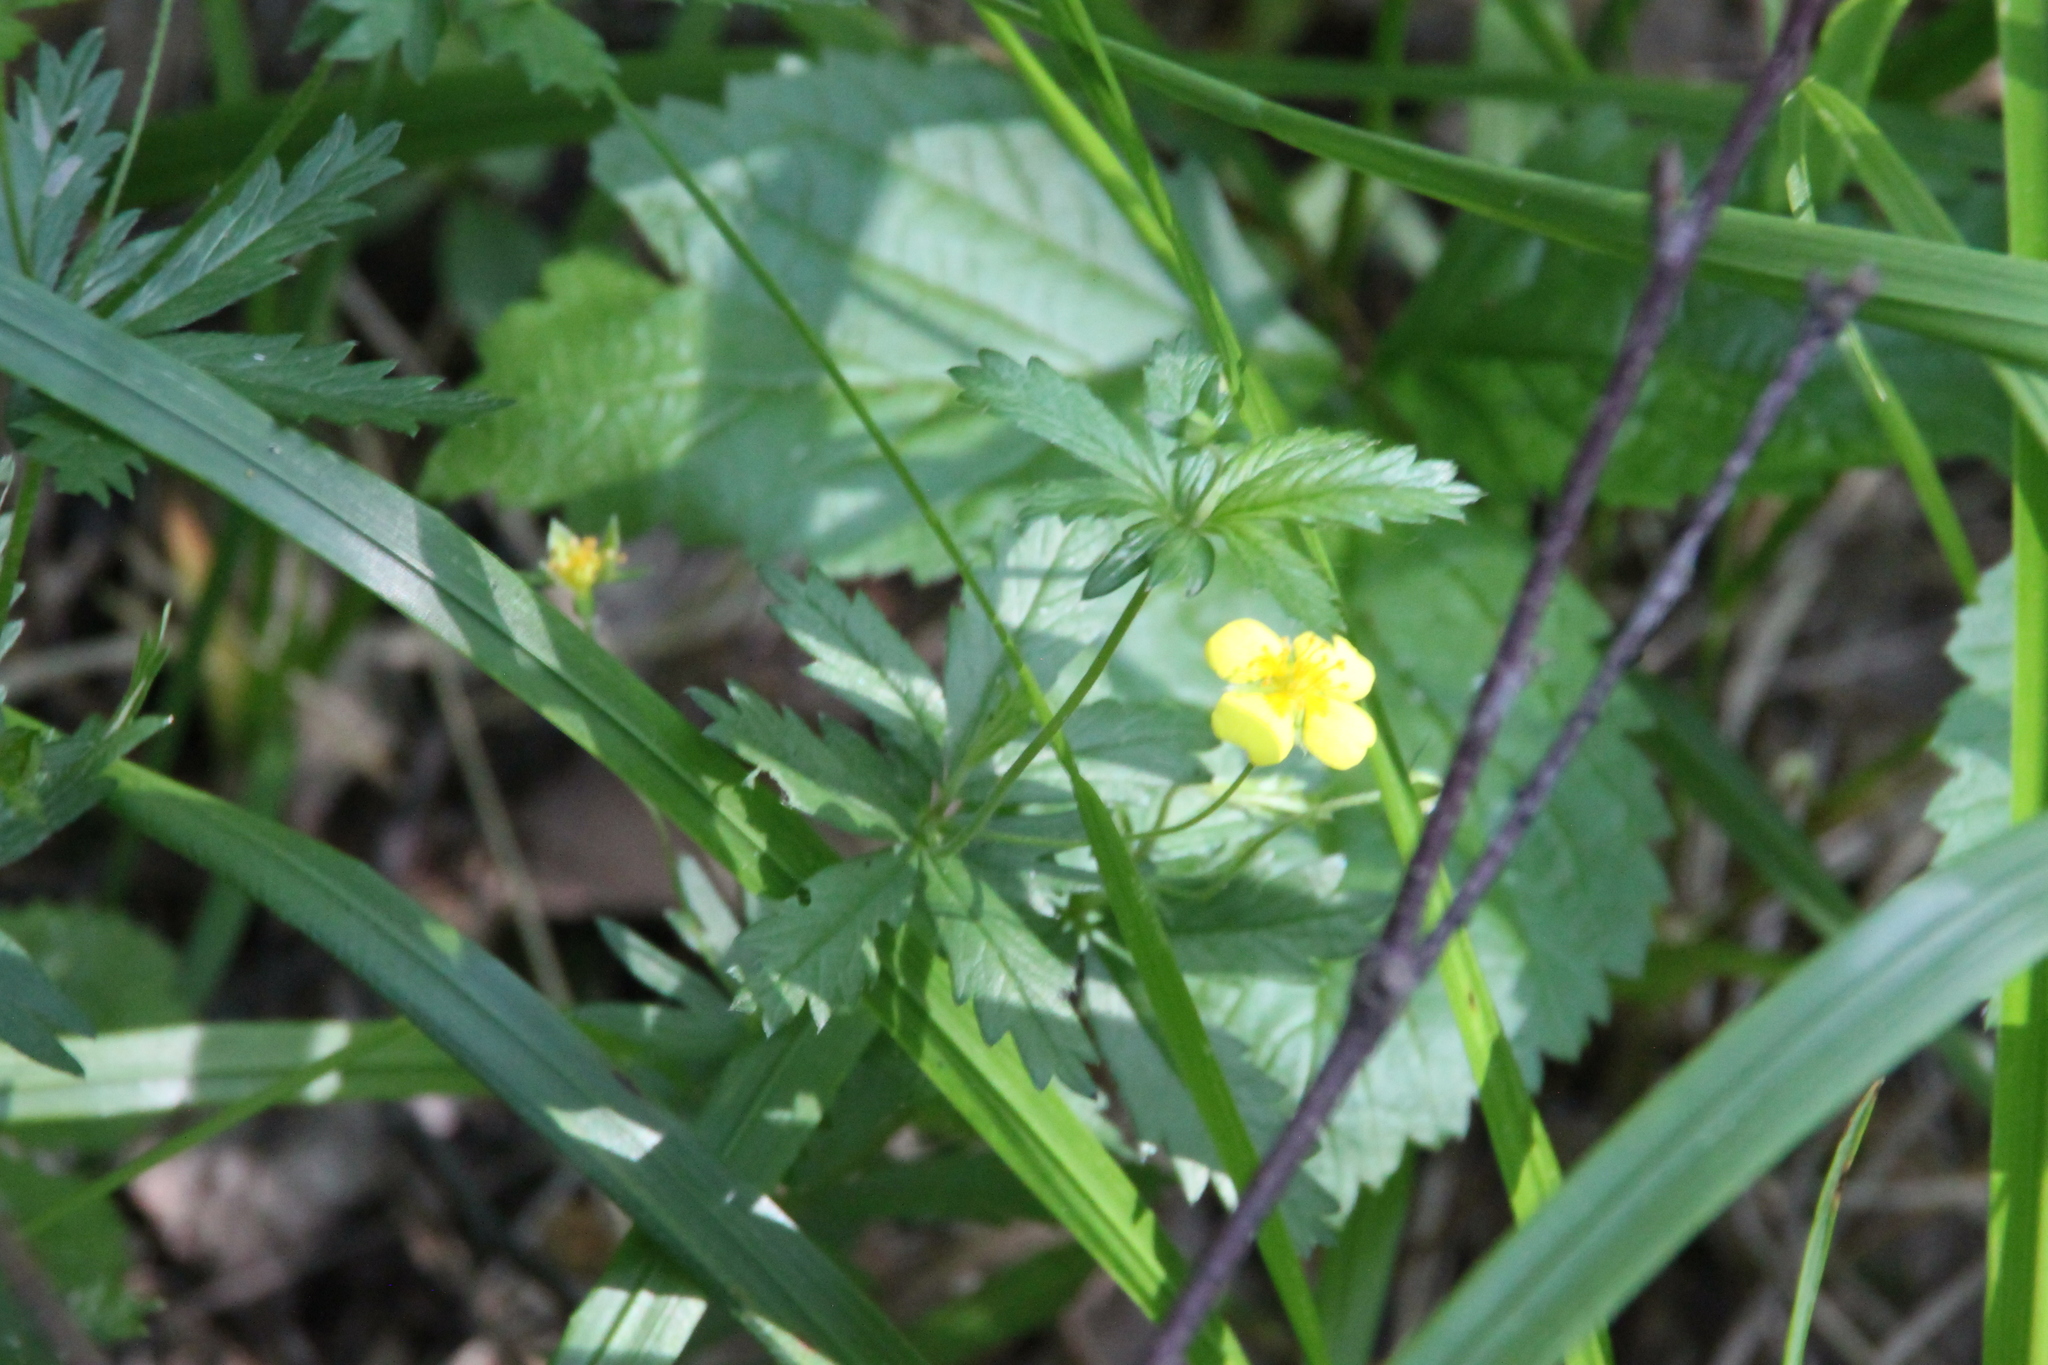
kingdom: Plantae
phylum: Tracheophyta
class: Magnoliopsida
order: Rosales
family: Rosaceae
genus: Potentilla
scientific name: Potentilla erecta
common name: Tormentil
